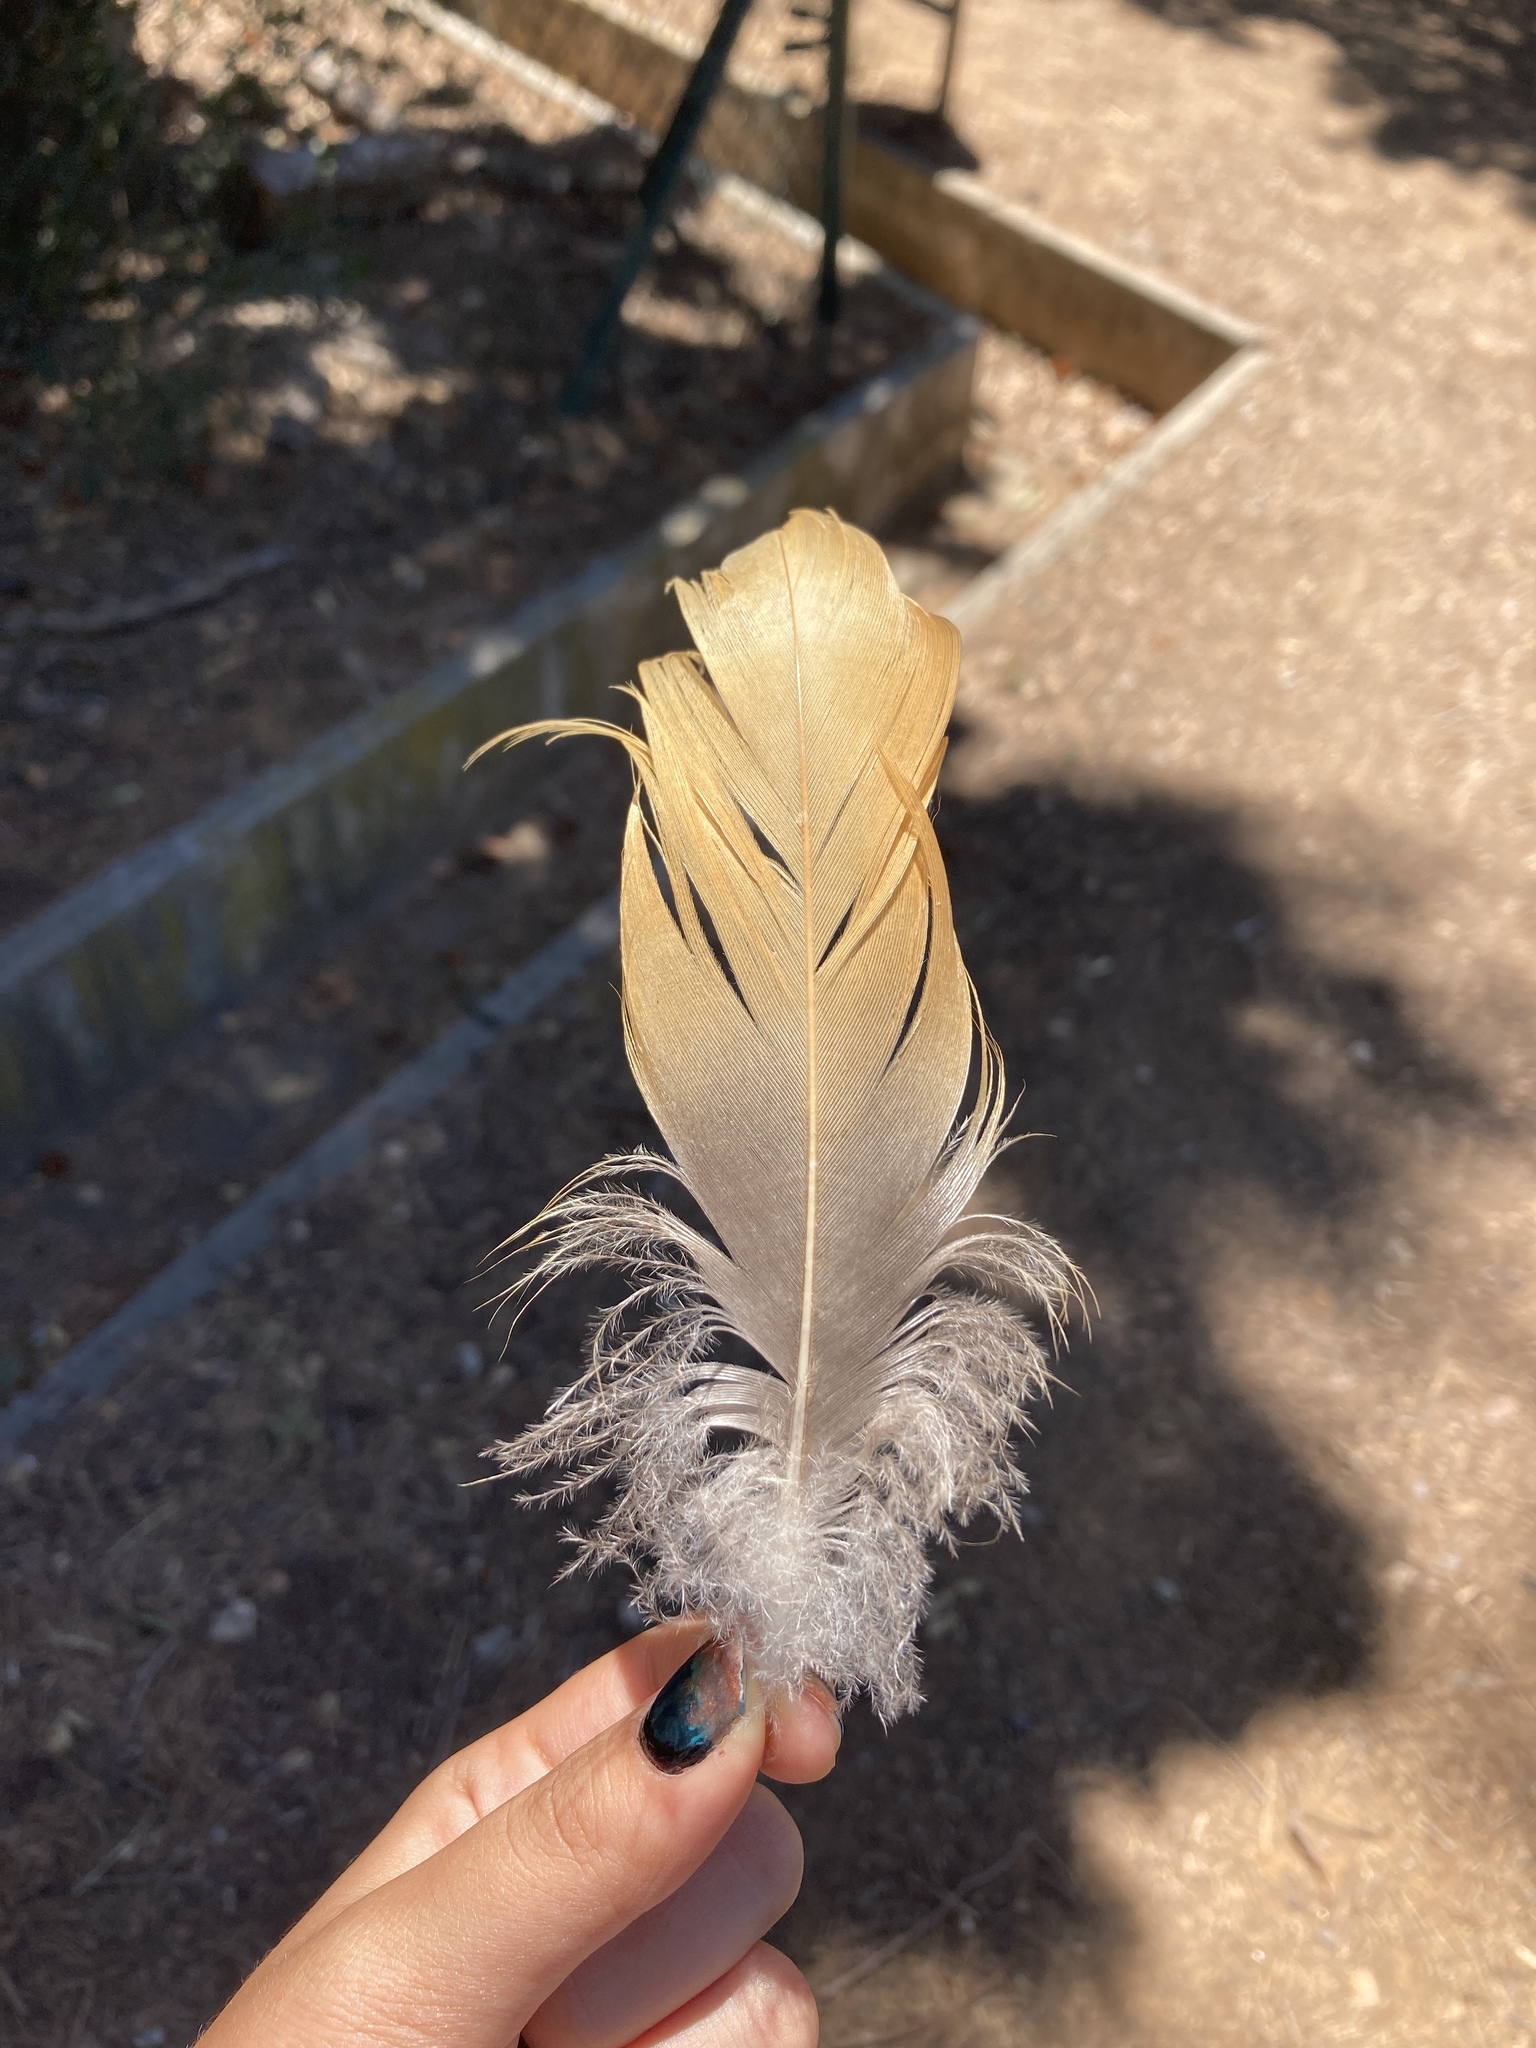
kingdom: Animalia
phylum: Chordata
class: Aves
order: Anseriformes
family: Anatidae
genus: Tadorna
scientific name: Tadorna ferruginea
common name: Ruddy shelduck
